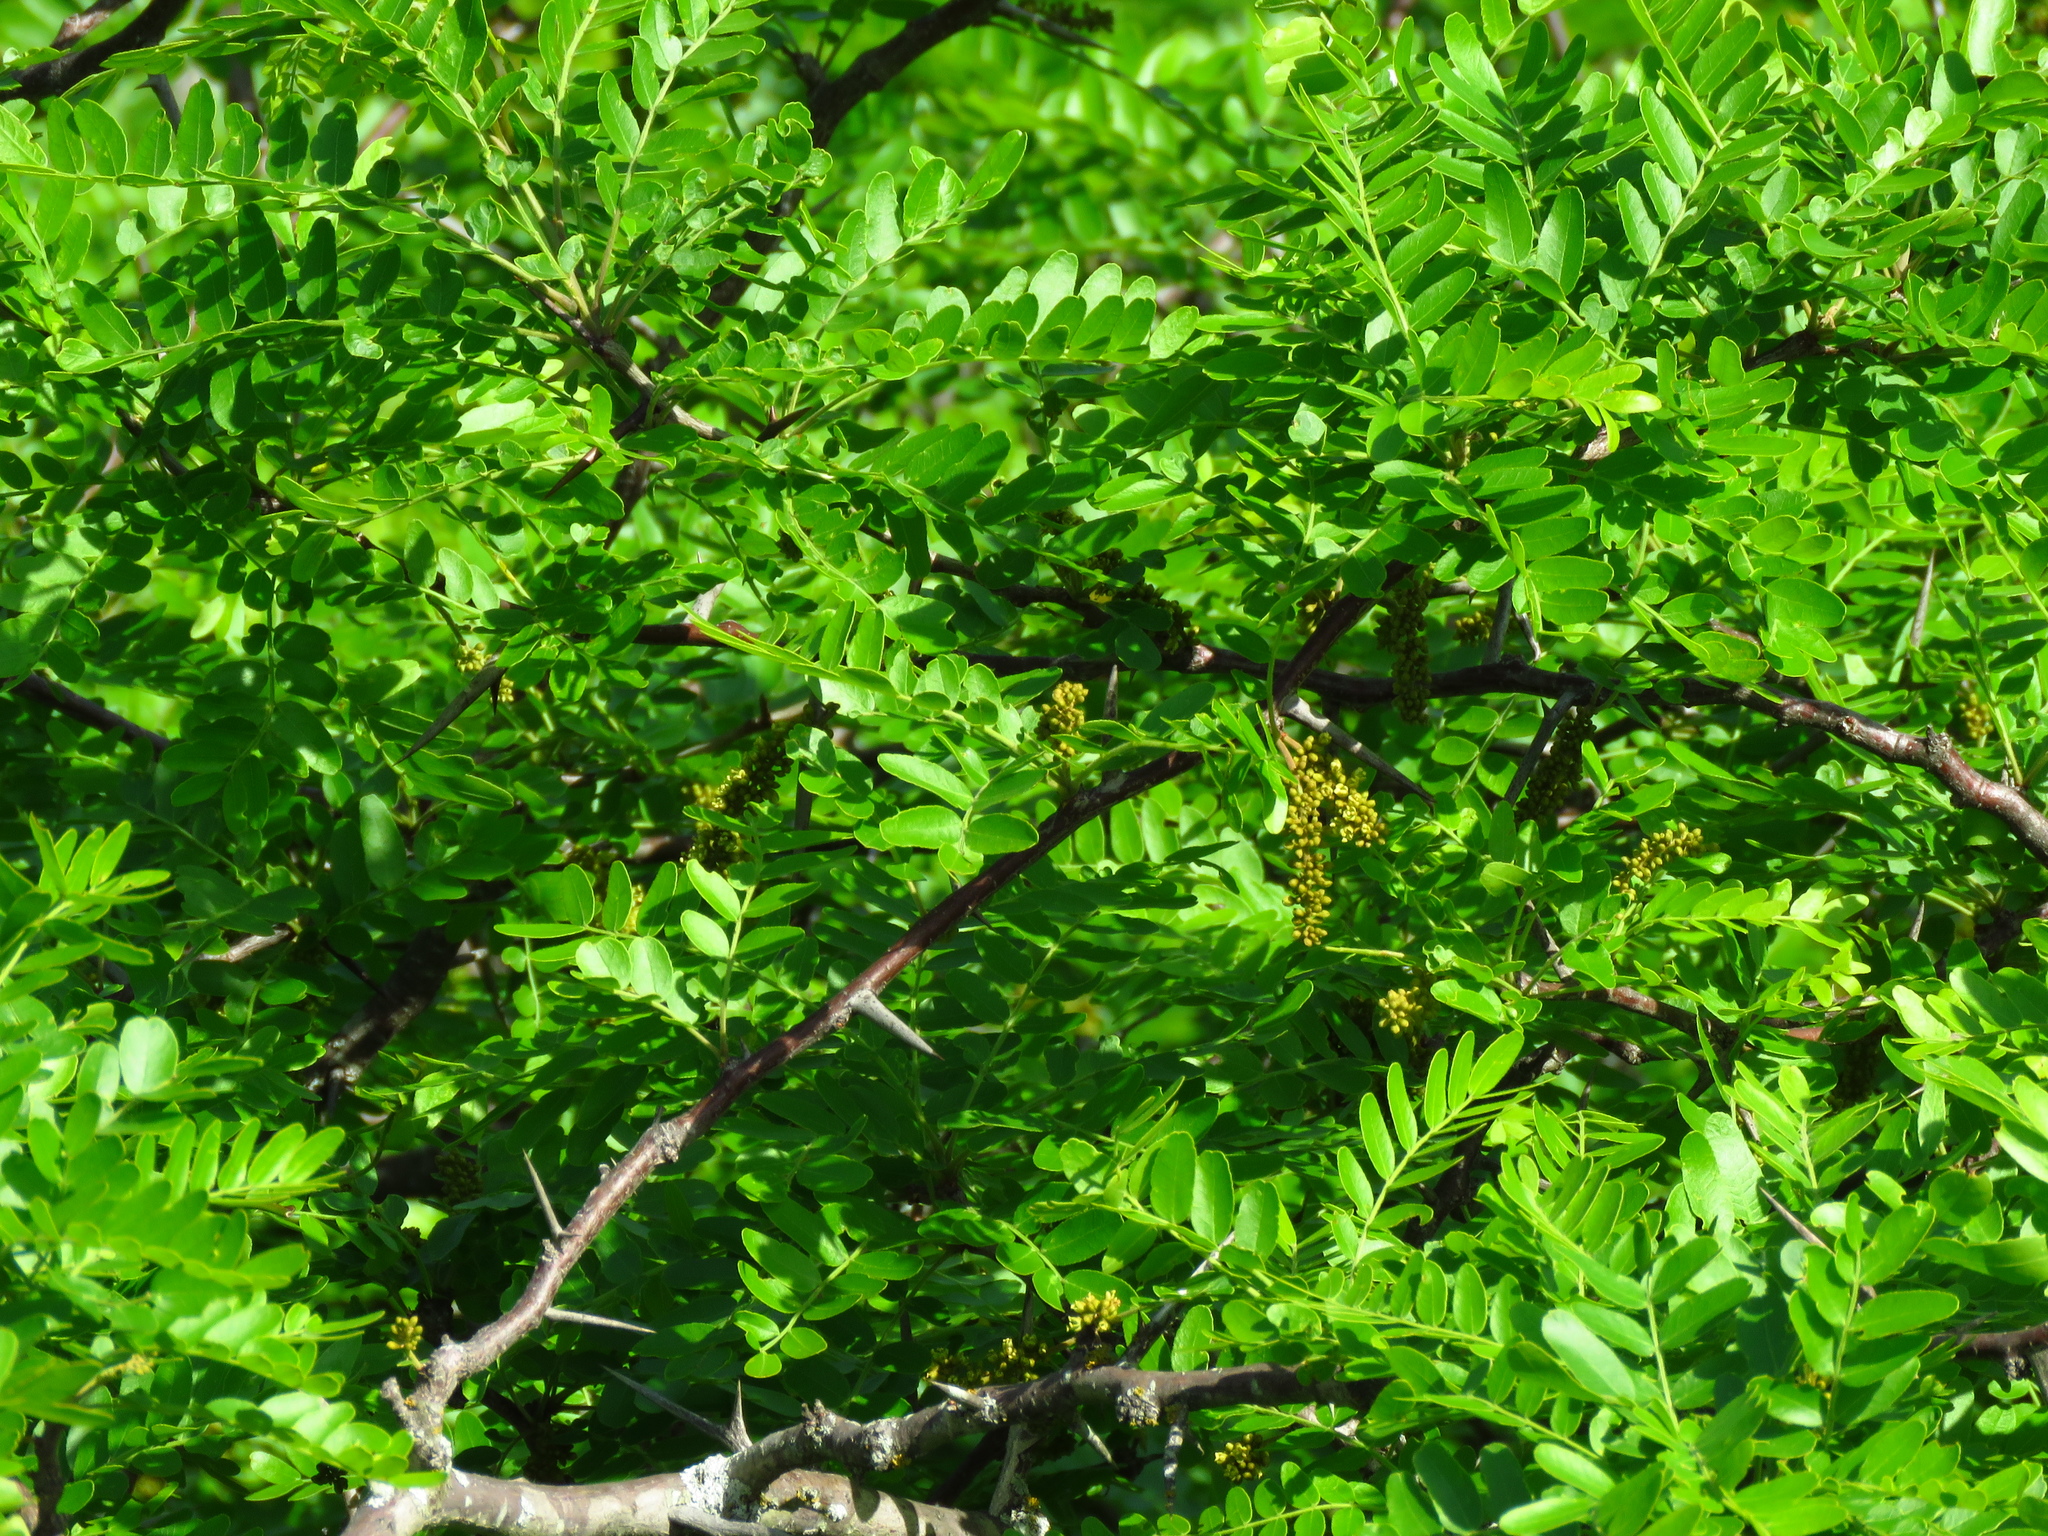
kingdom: Plantae
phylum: Tracheophyta
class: Magnoliopsida
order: Fabales
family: Fabaceae
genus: Gleditsia
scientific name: Gleditsia triacanthos
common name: Common honeylocust
